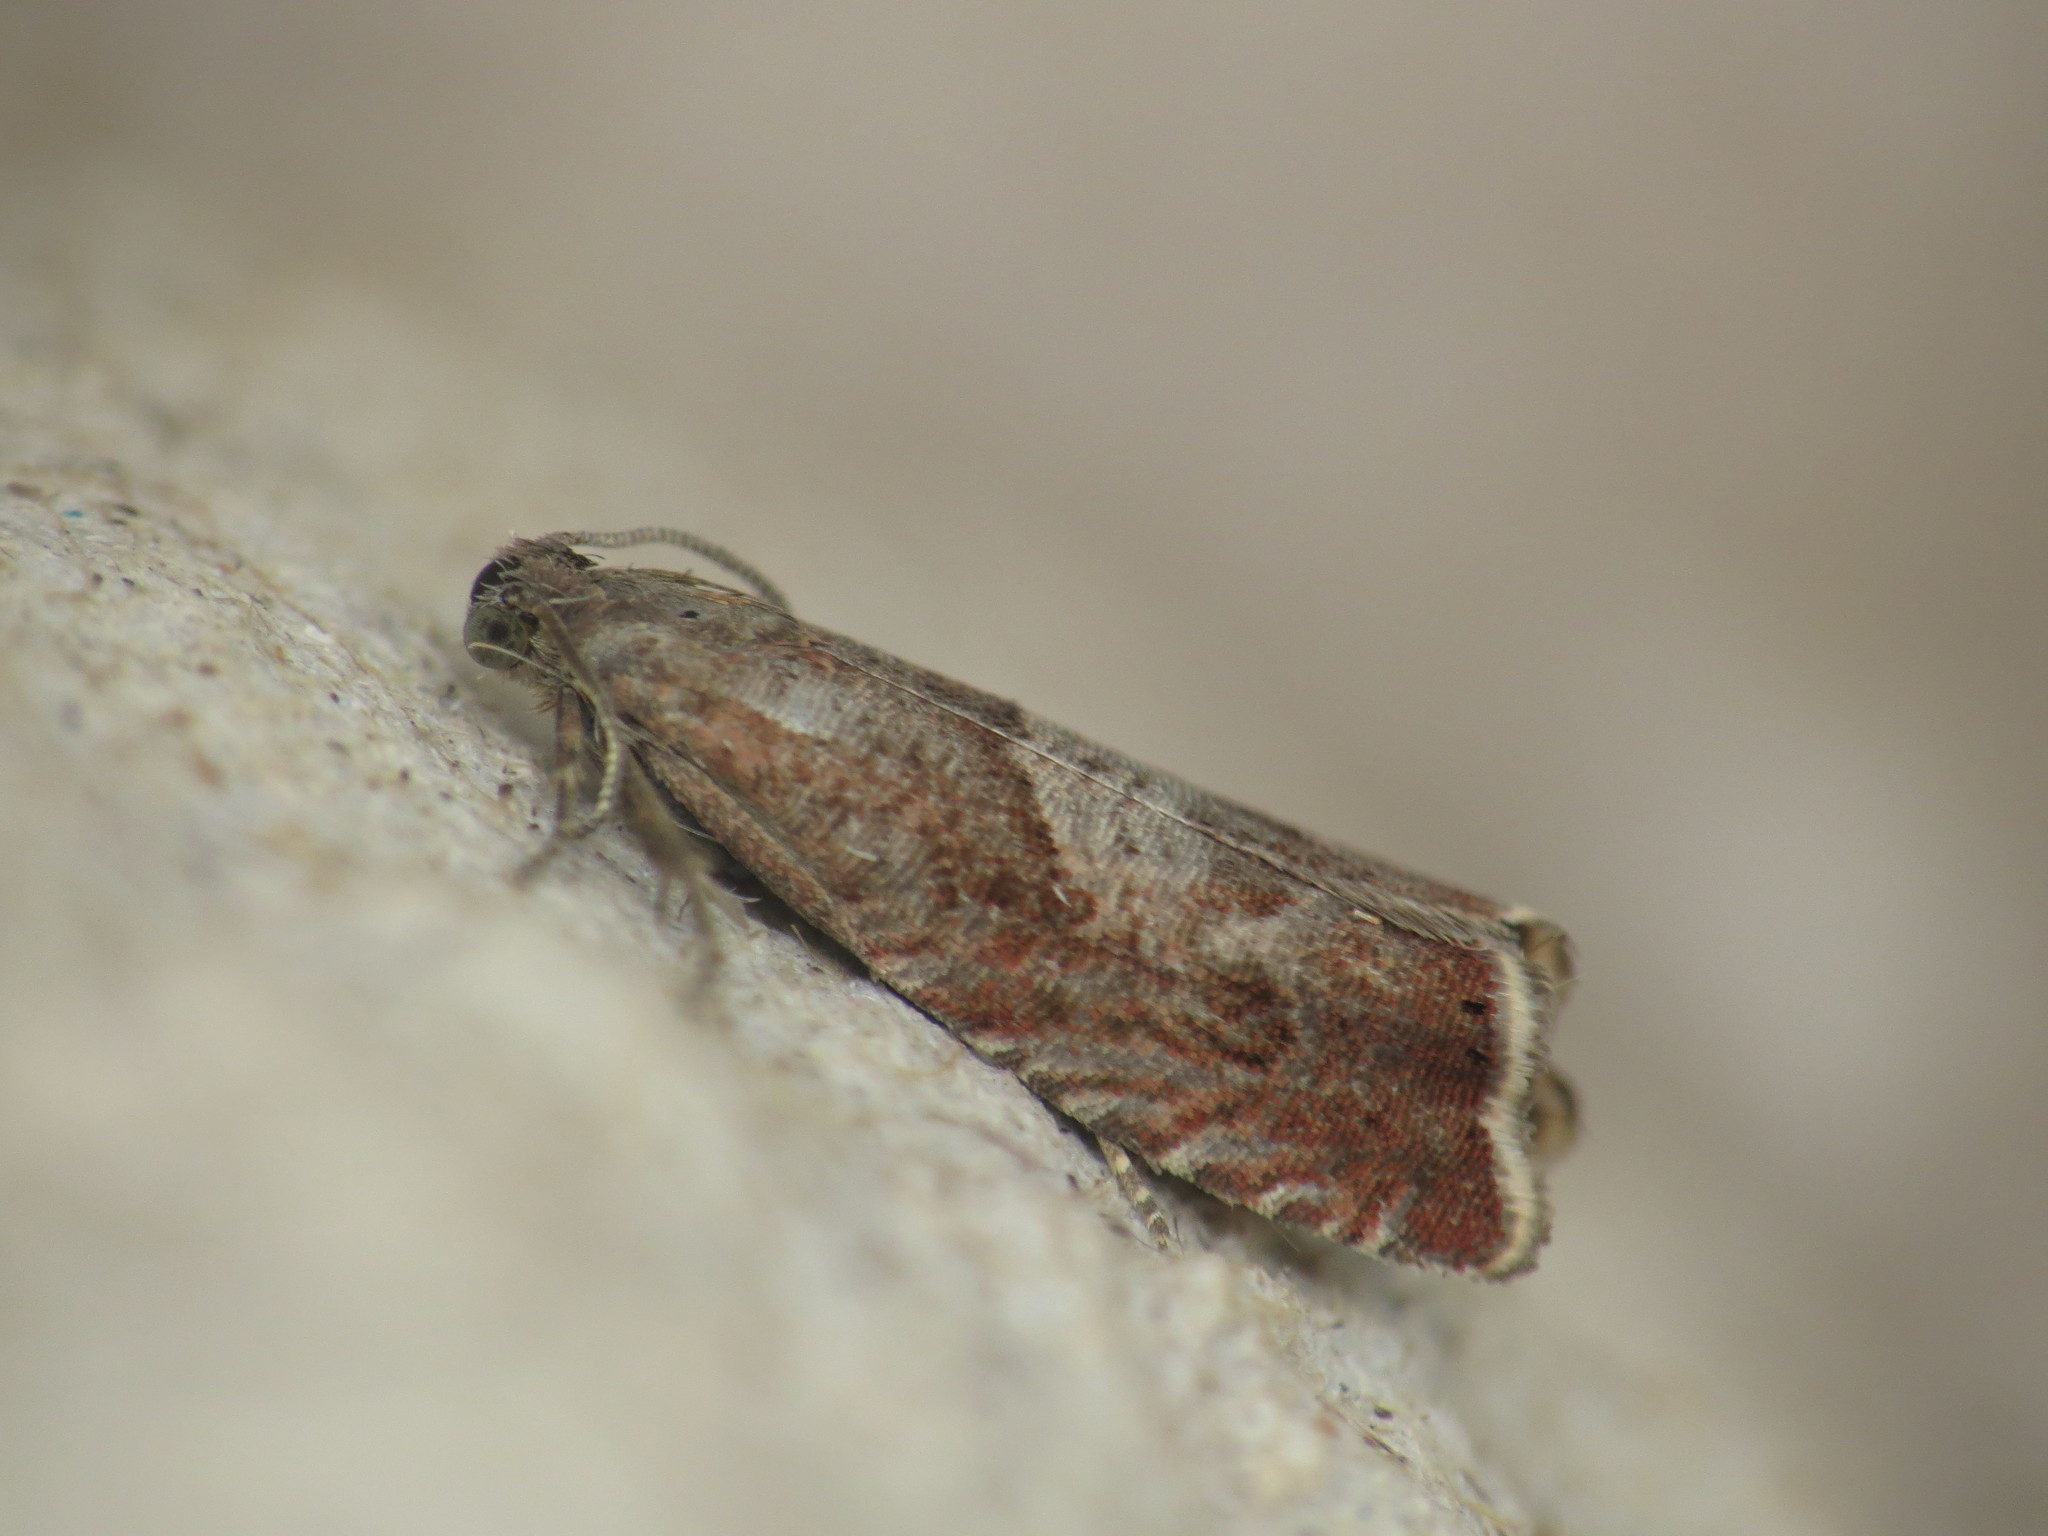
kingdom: Animalia
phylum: Arthropoda
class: Insecta
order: Lepidoptera
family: Tortricidae
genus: Dichrorampha
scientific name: Dichrorampha acuminatana
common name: Sharp-winged drill
